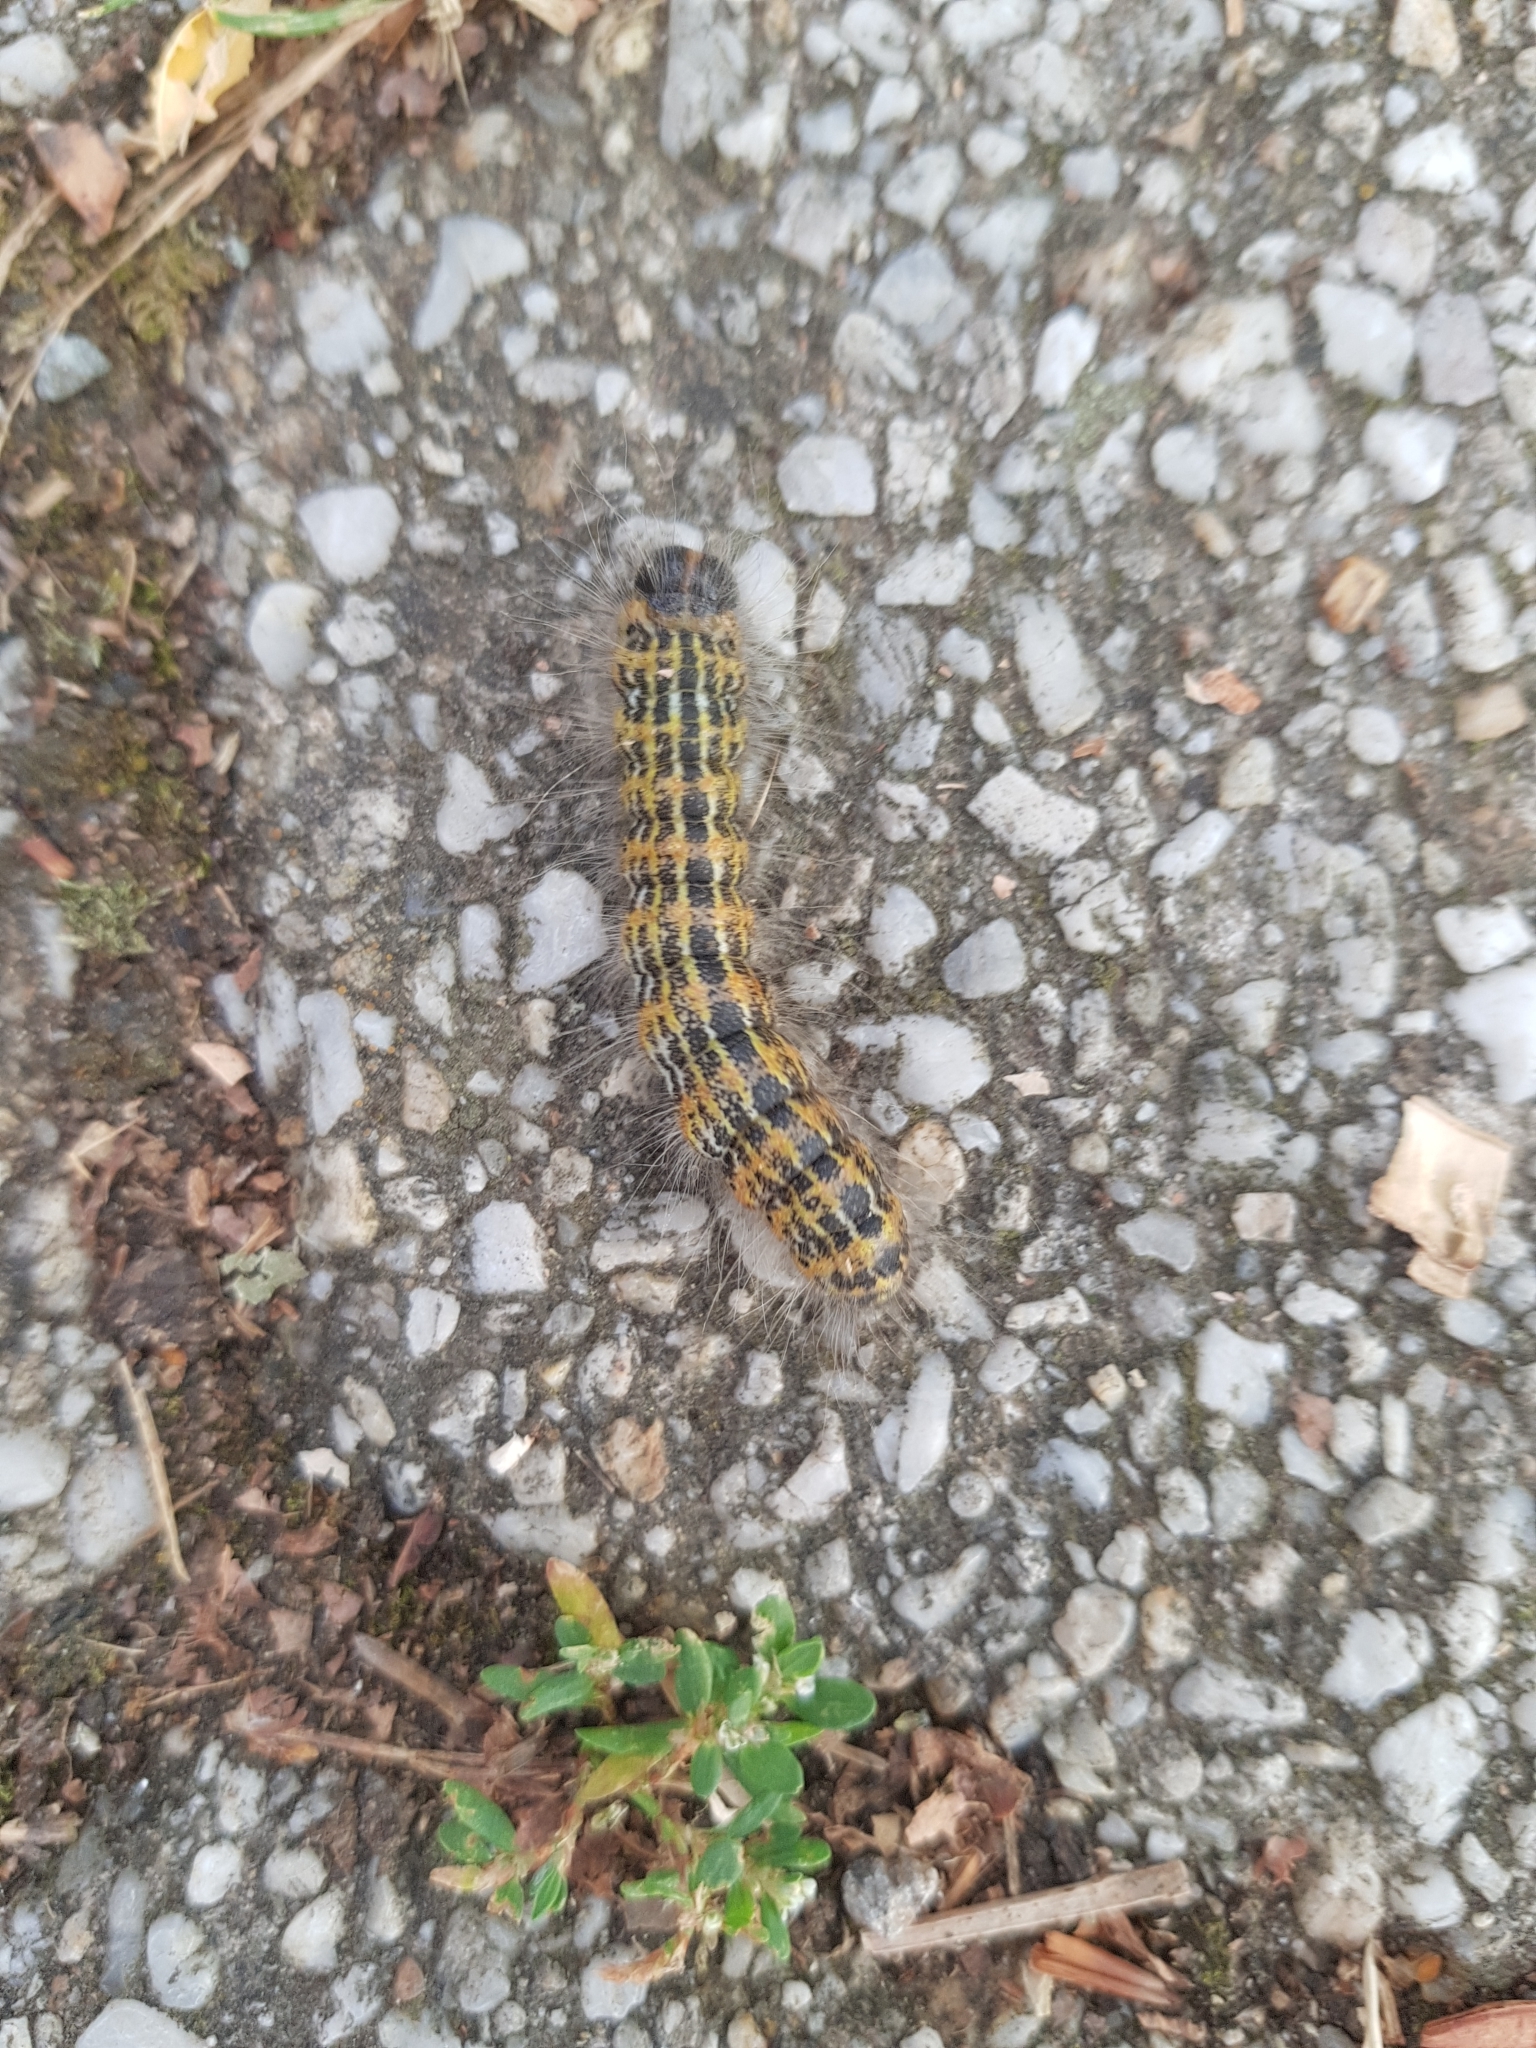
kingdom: Animalia
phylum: Arthropoda
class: Insecta
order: Lepidoptera
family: Notodontidae
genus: Phalera
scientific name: Phalera bucephala
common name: Buff-tip
